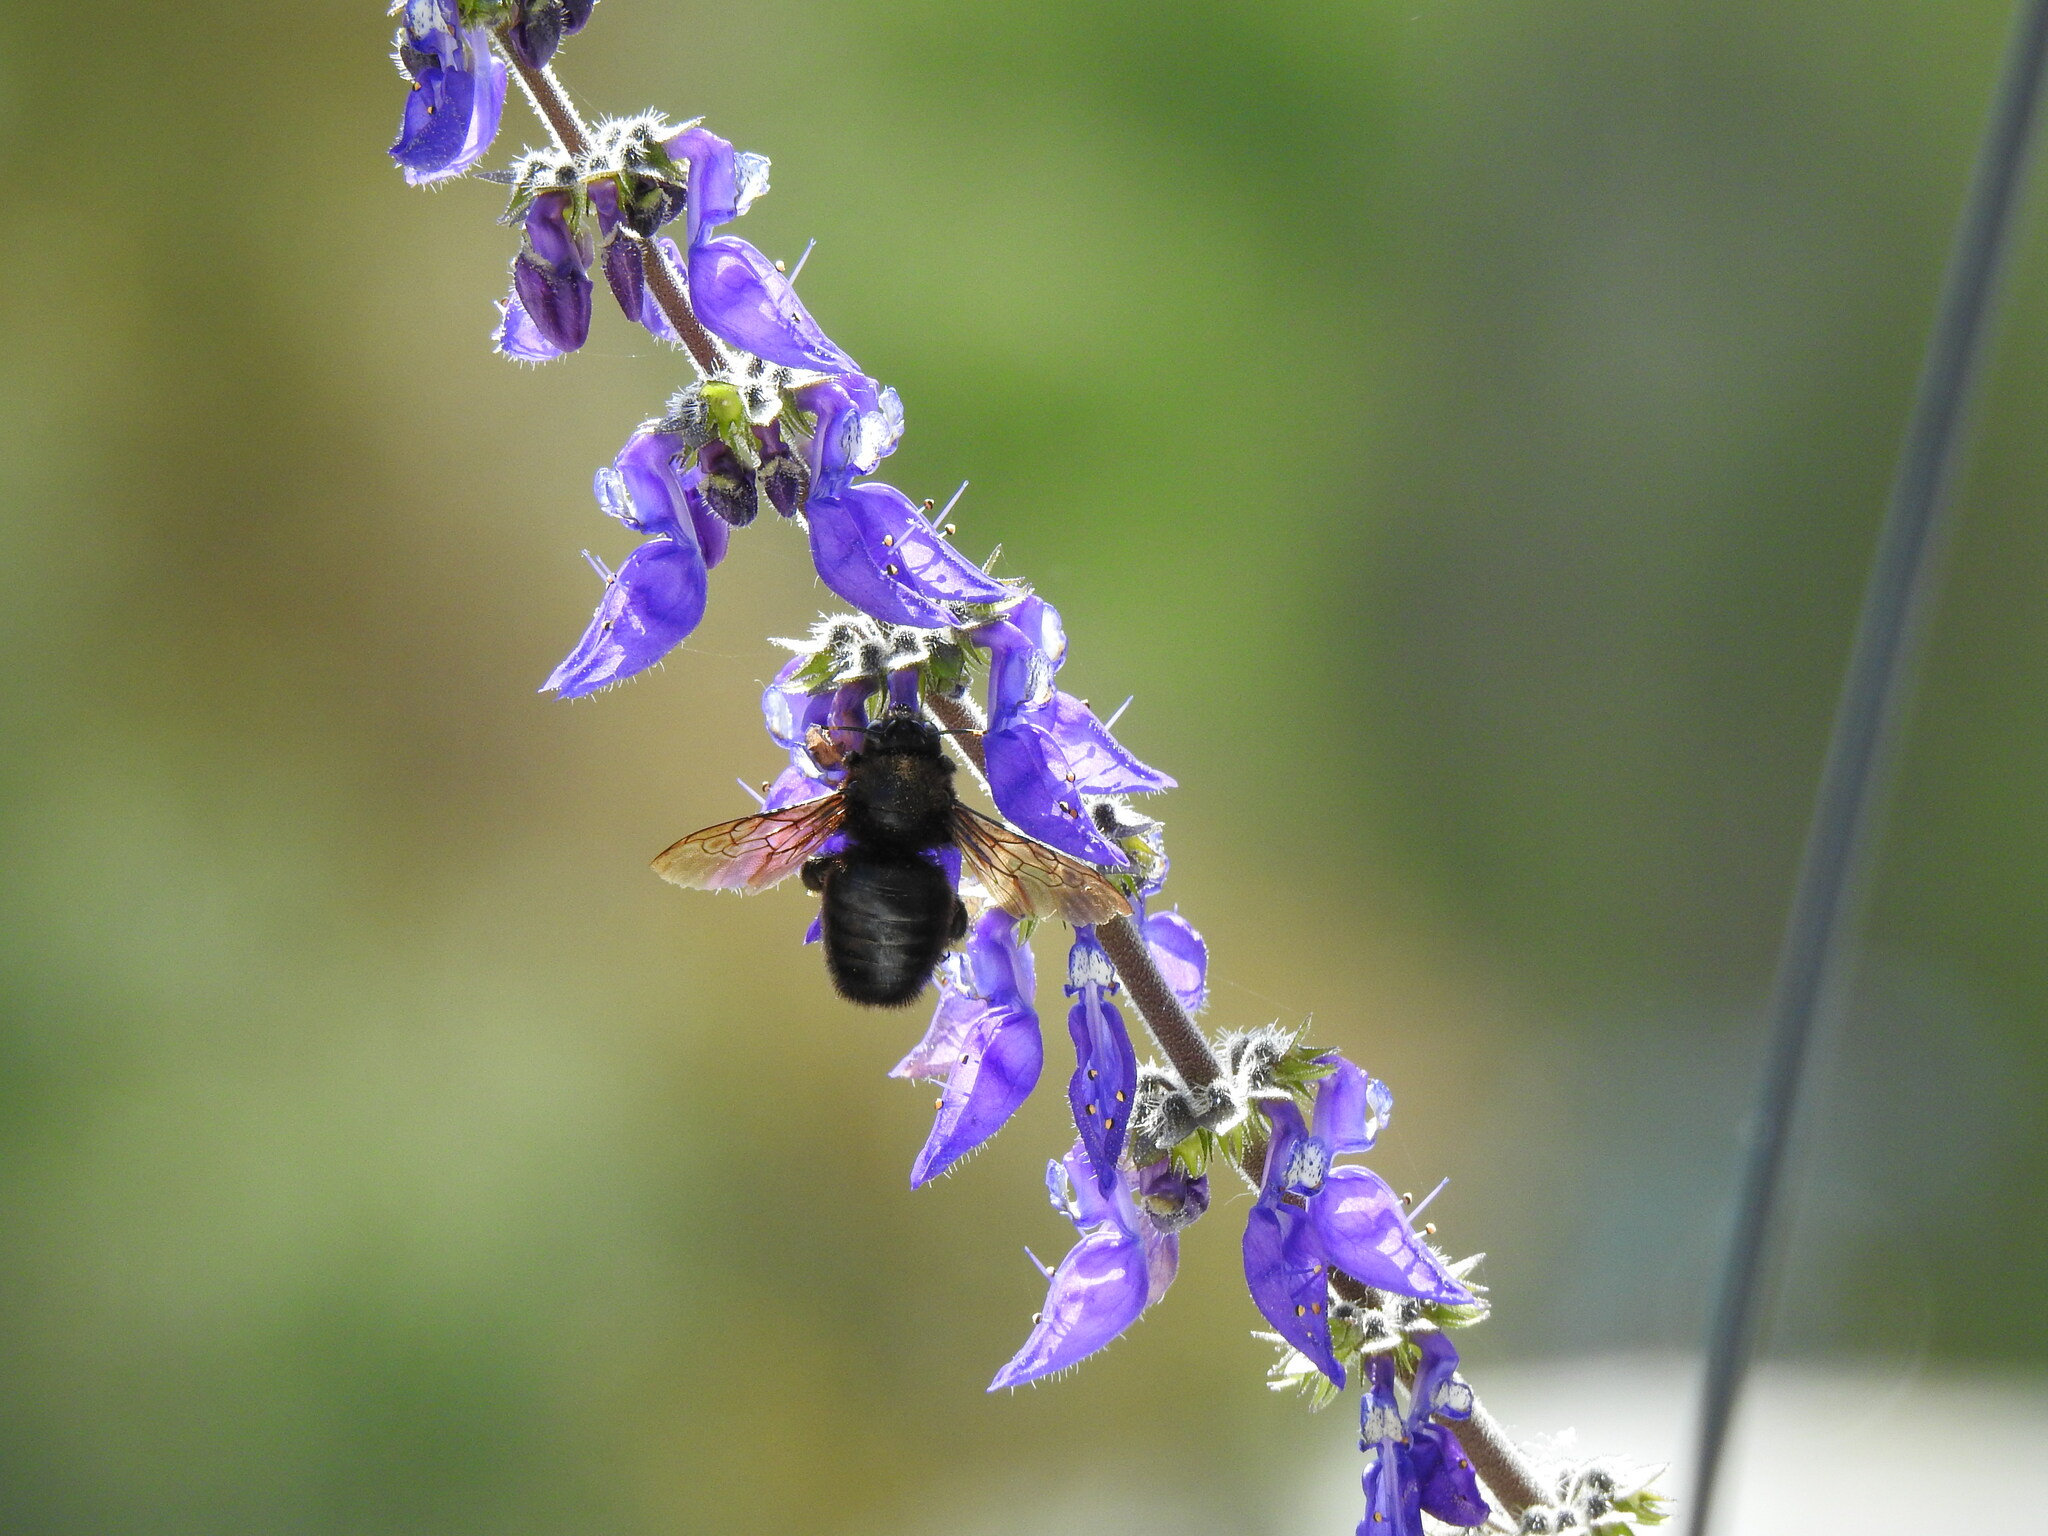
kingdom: Animalia
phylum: Arthropoda
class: Insecta
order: Hymenoptera
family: Apidae
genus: Xylocopa
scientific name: Xylocopa violacea
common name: Violet carpenter bee
